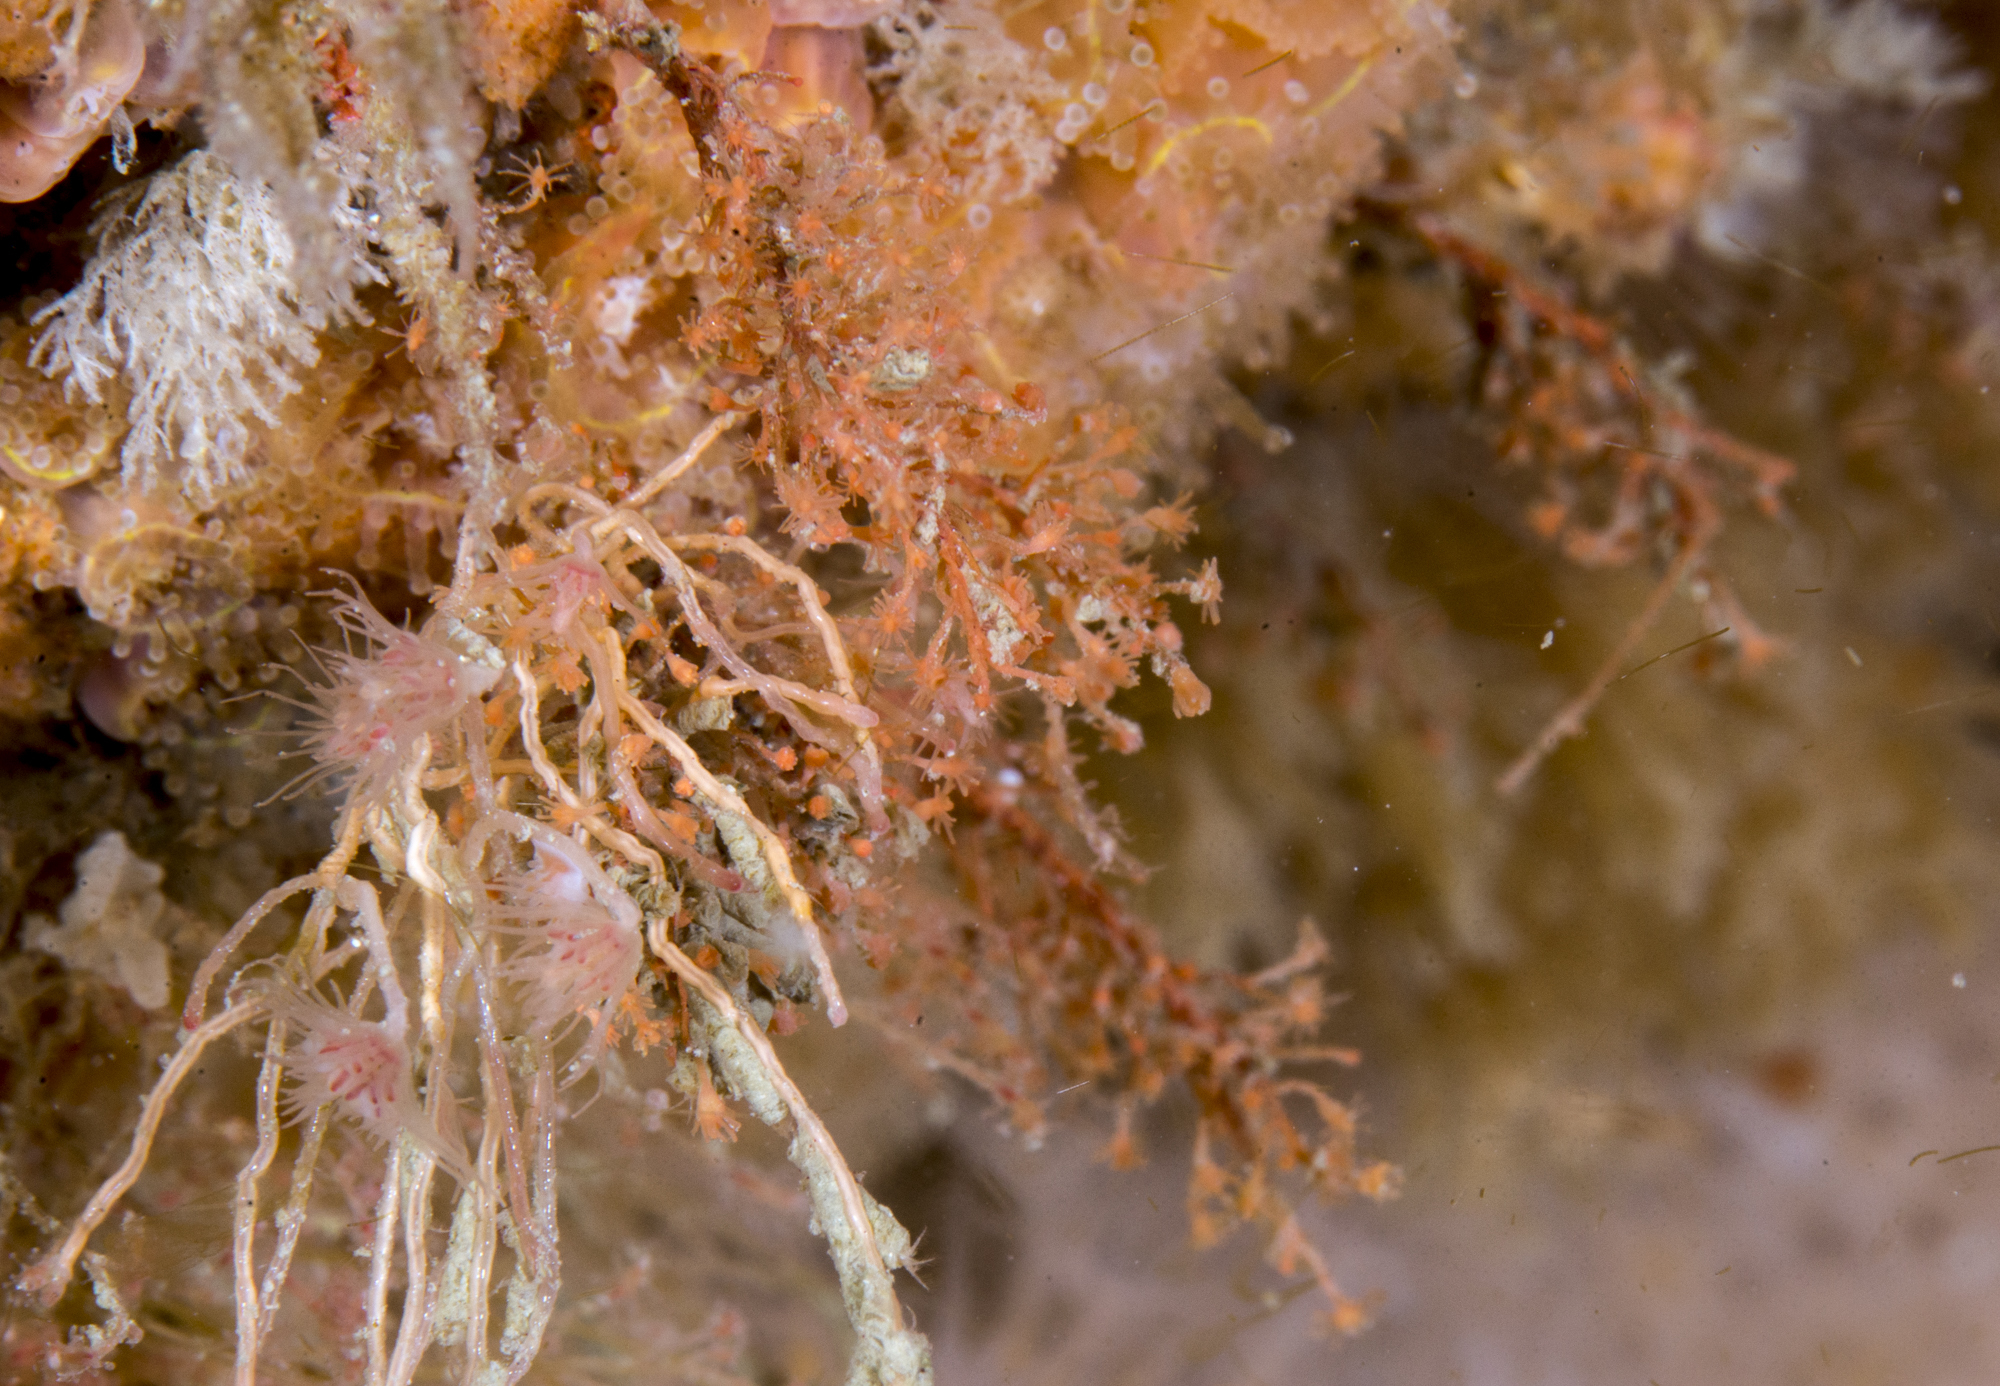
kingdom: Animalia
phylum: Cnidaria
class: Hydrozoa
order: Anthoathecata
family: Bougainvilliidae
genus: Garveia
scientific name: Garveia nutans
